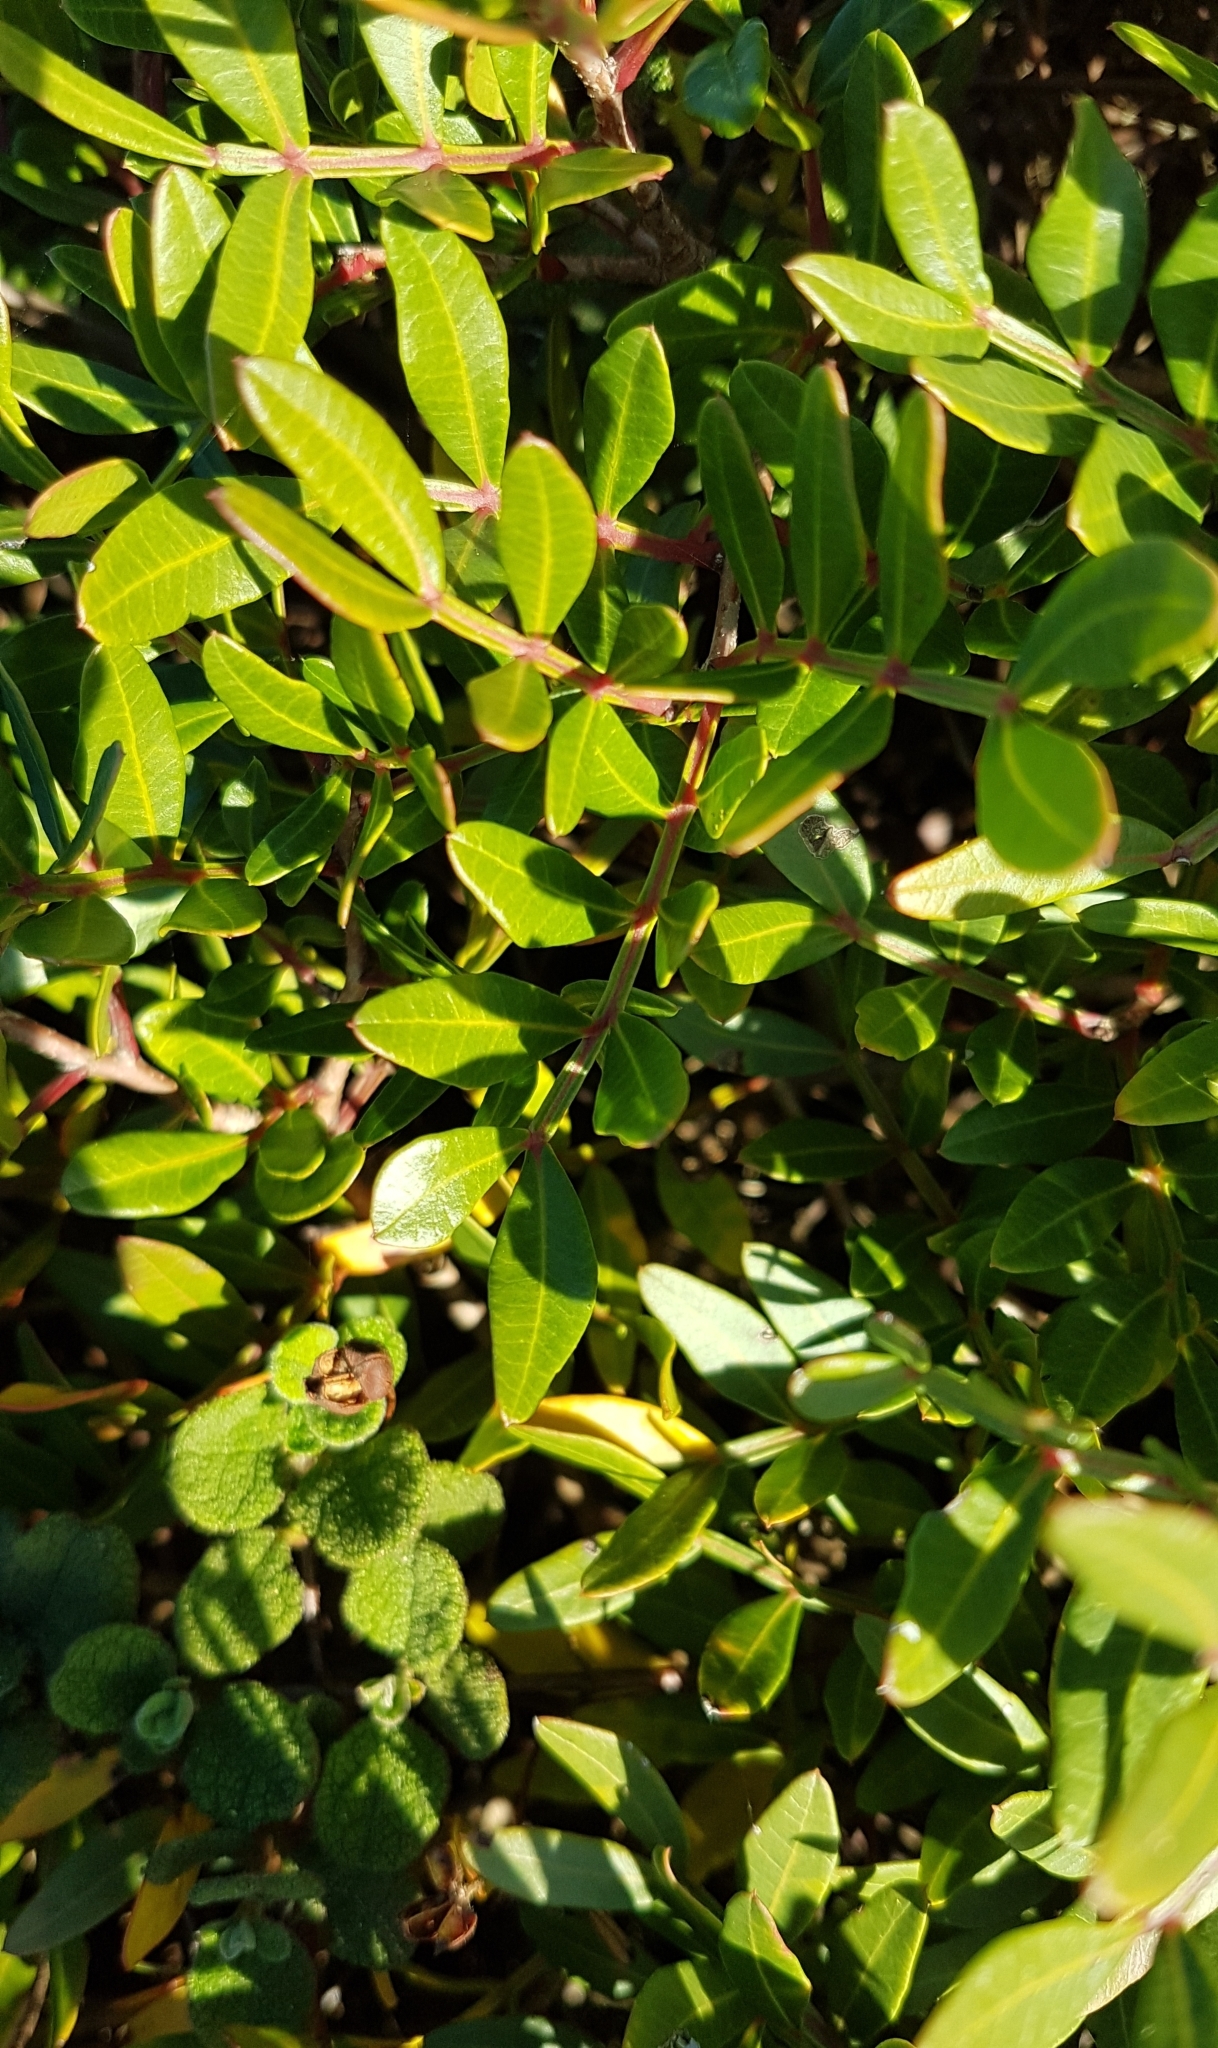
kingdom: Plantae
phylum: Tracheophyta
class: Magnoliopsida
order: Sapindales
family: Anacardiaceae
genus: Pistacia
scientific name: Pistacia lentiscus
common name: Lentisk
